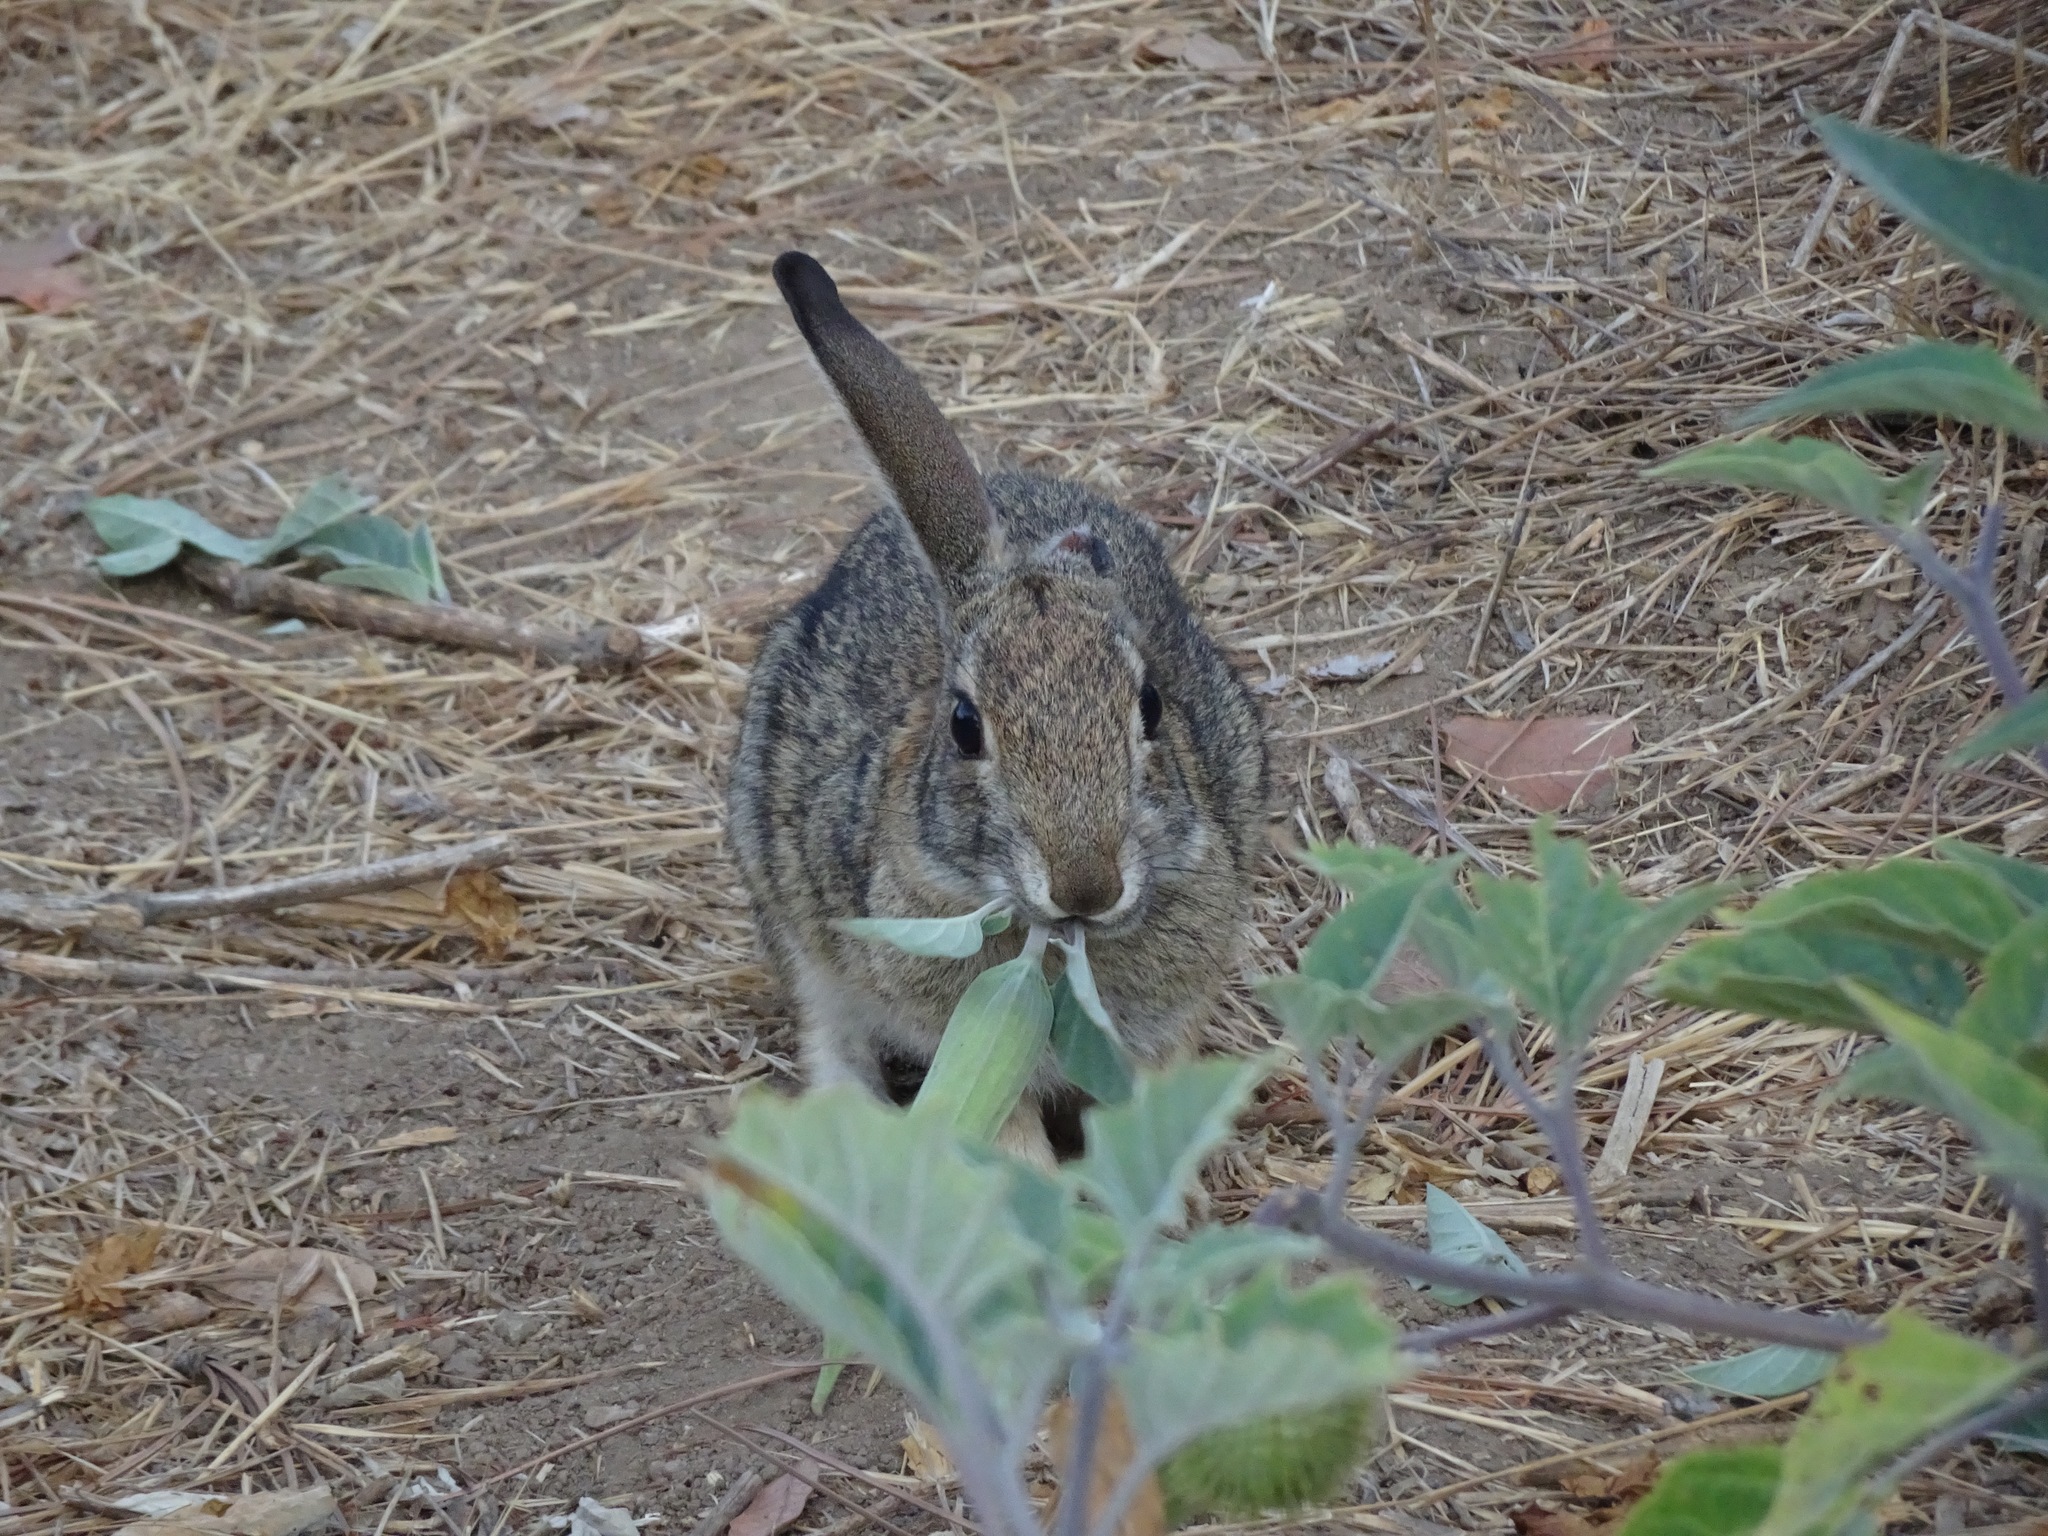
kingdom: Animalia
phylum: Chordata
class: Mammalia
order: Lagomorpha
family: Leporidae
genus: Sylvilagus
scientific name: Sylvilagus audubonii
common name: Desert cottontail
